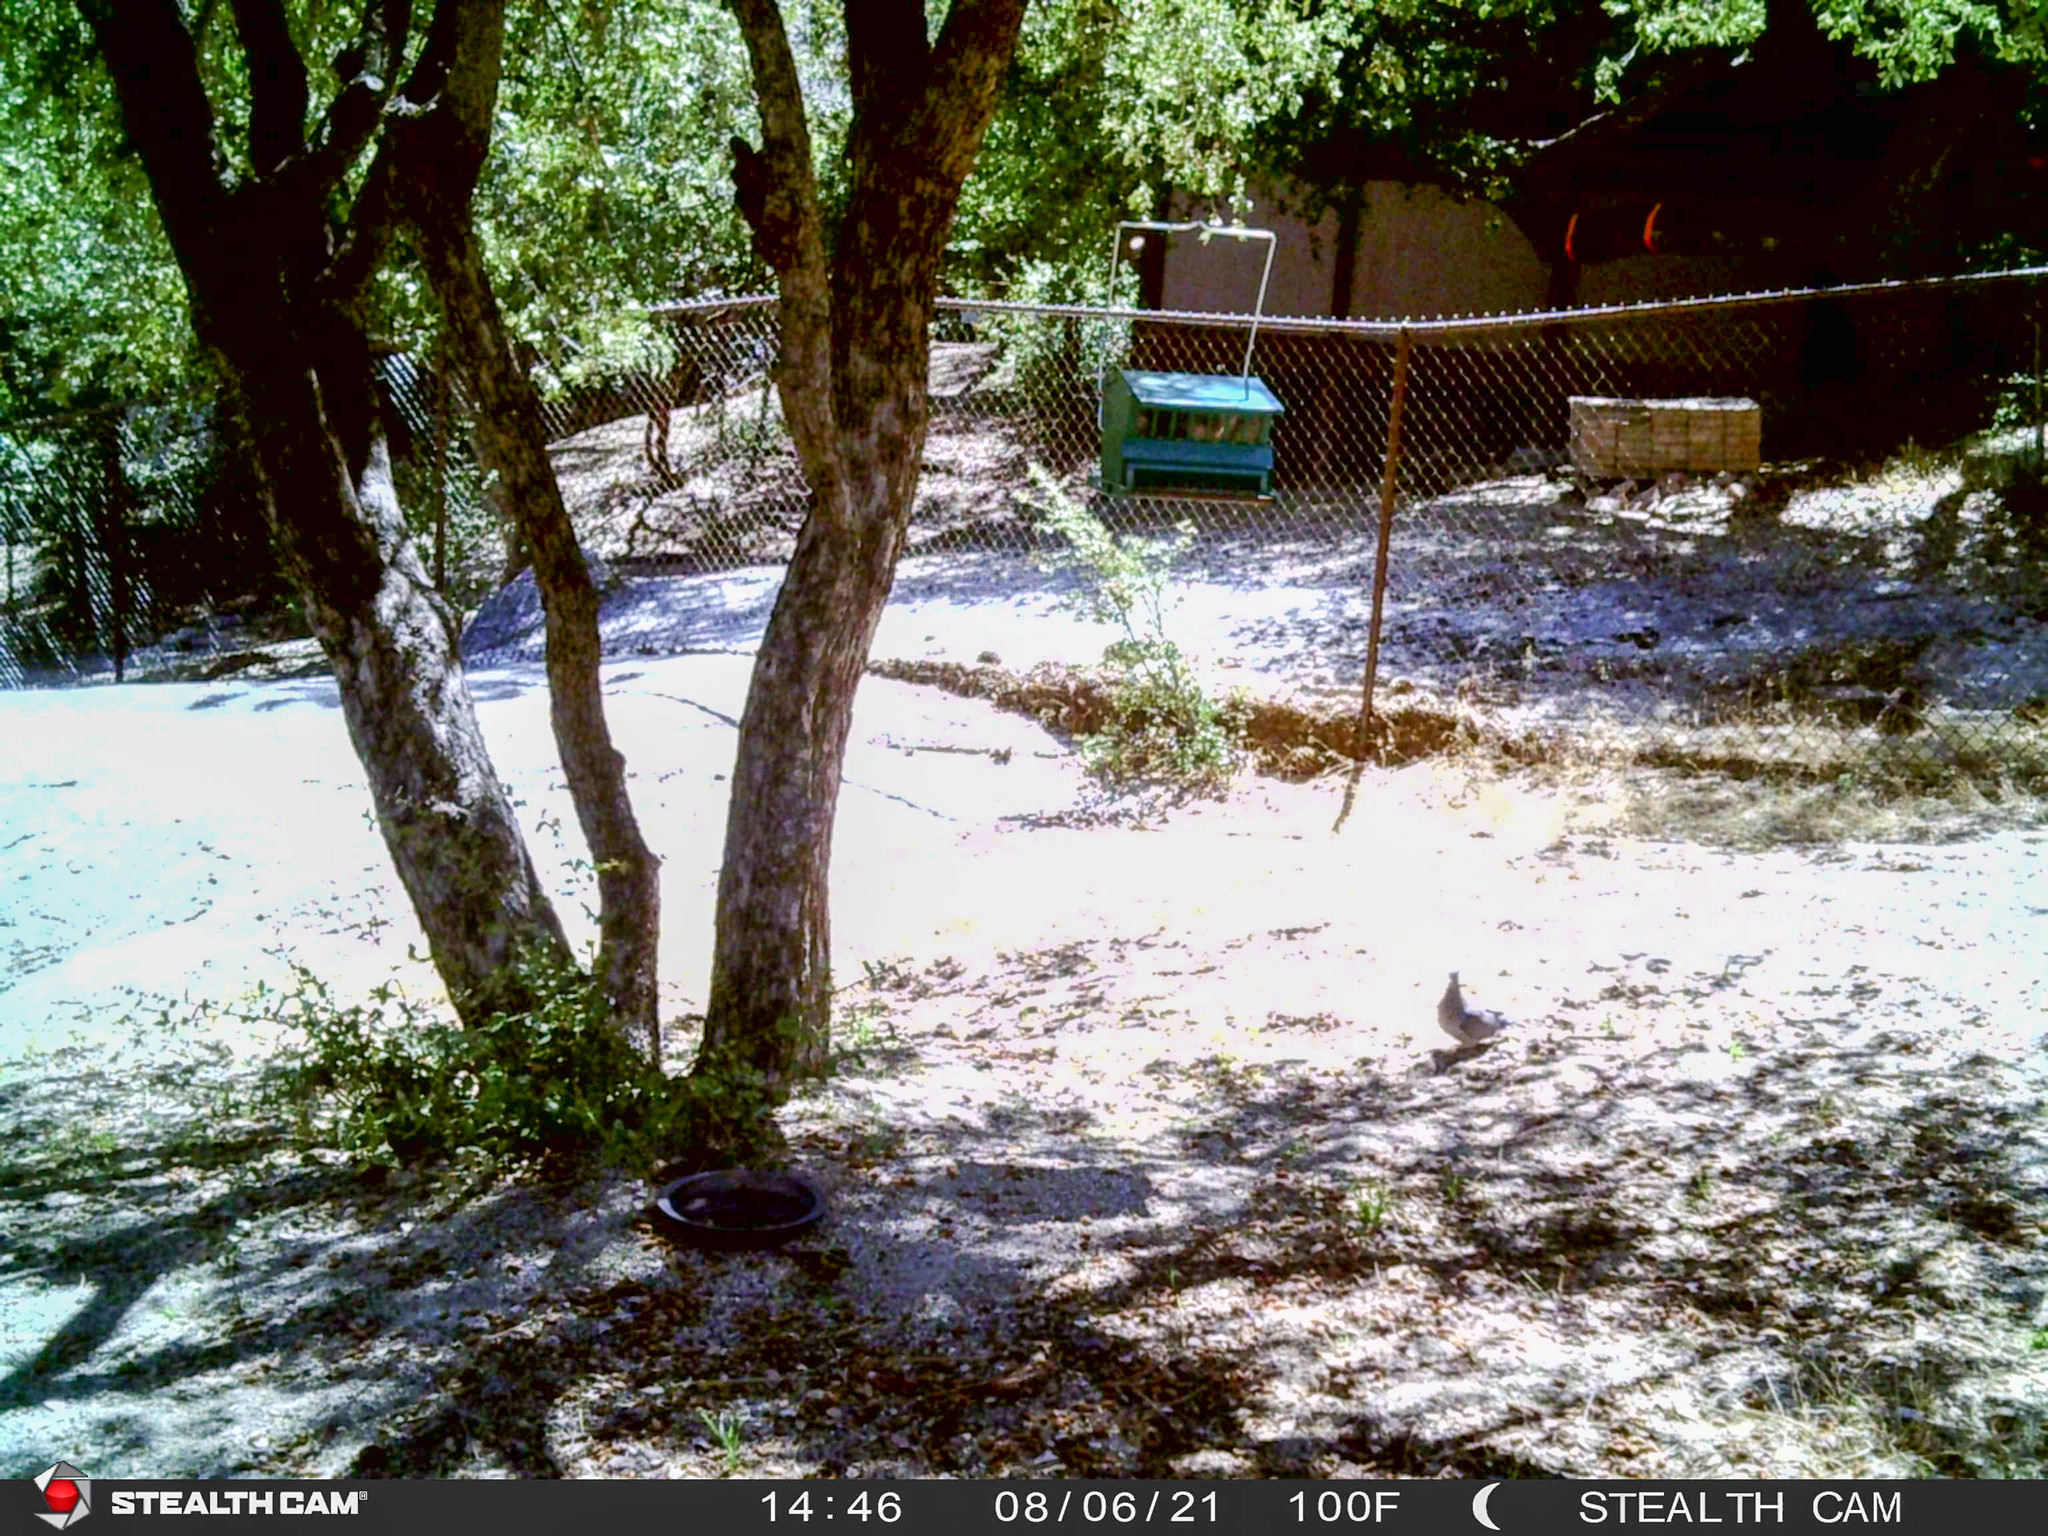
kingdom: Animalia
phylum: Chordata
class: Aves
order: Columbiformes
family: Columbidae
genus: Patagioenas
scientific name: Patagioenas fasciata
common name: Band-tailed pigeon
